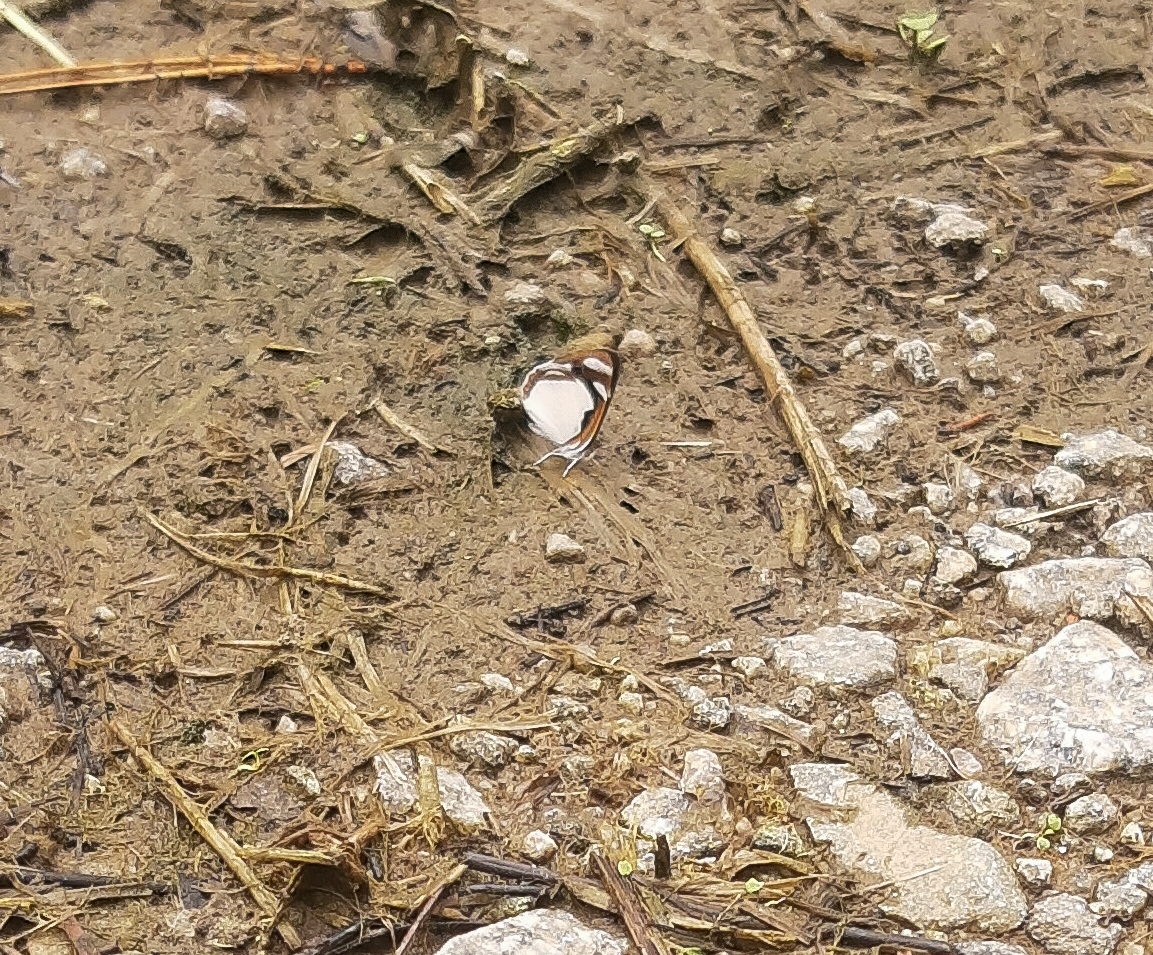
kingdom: Animalia
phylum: Arthropoda
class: Insecta
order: Lepidoptera
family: Nymphalidae
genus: Dynamine
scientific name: Dynamine agacles
